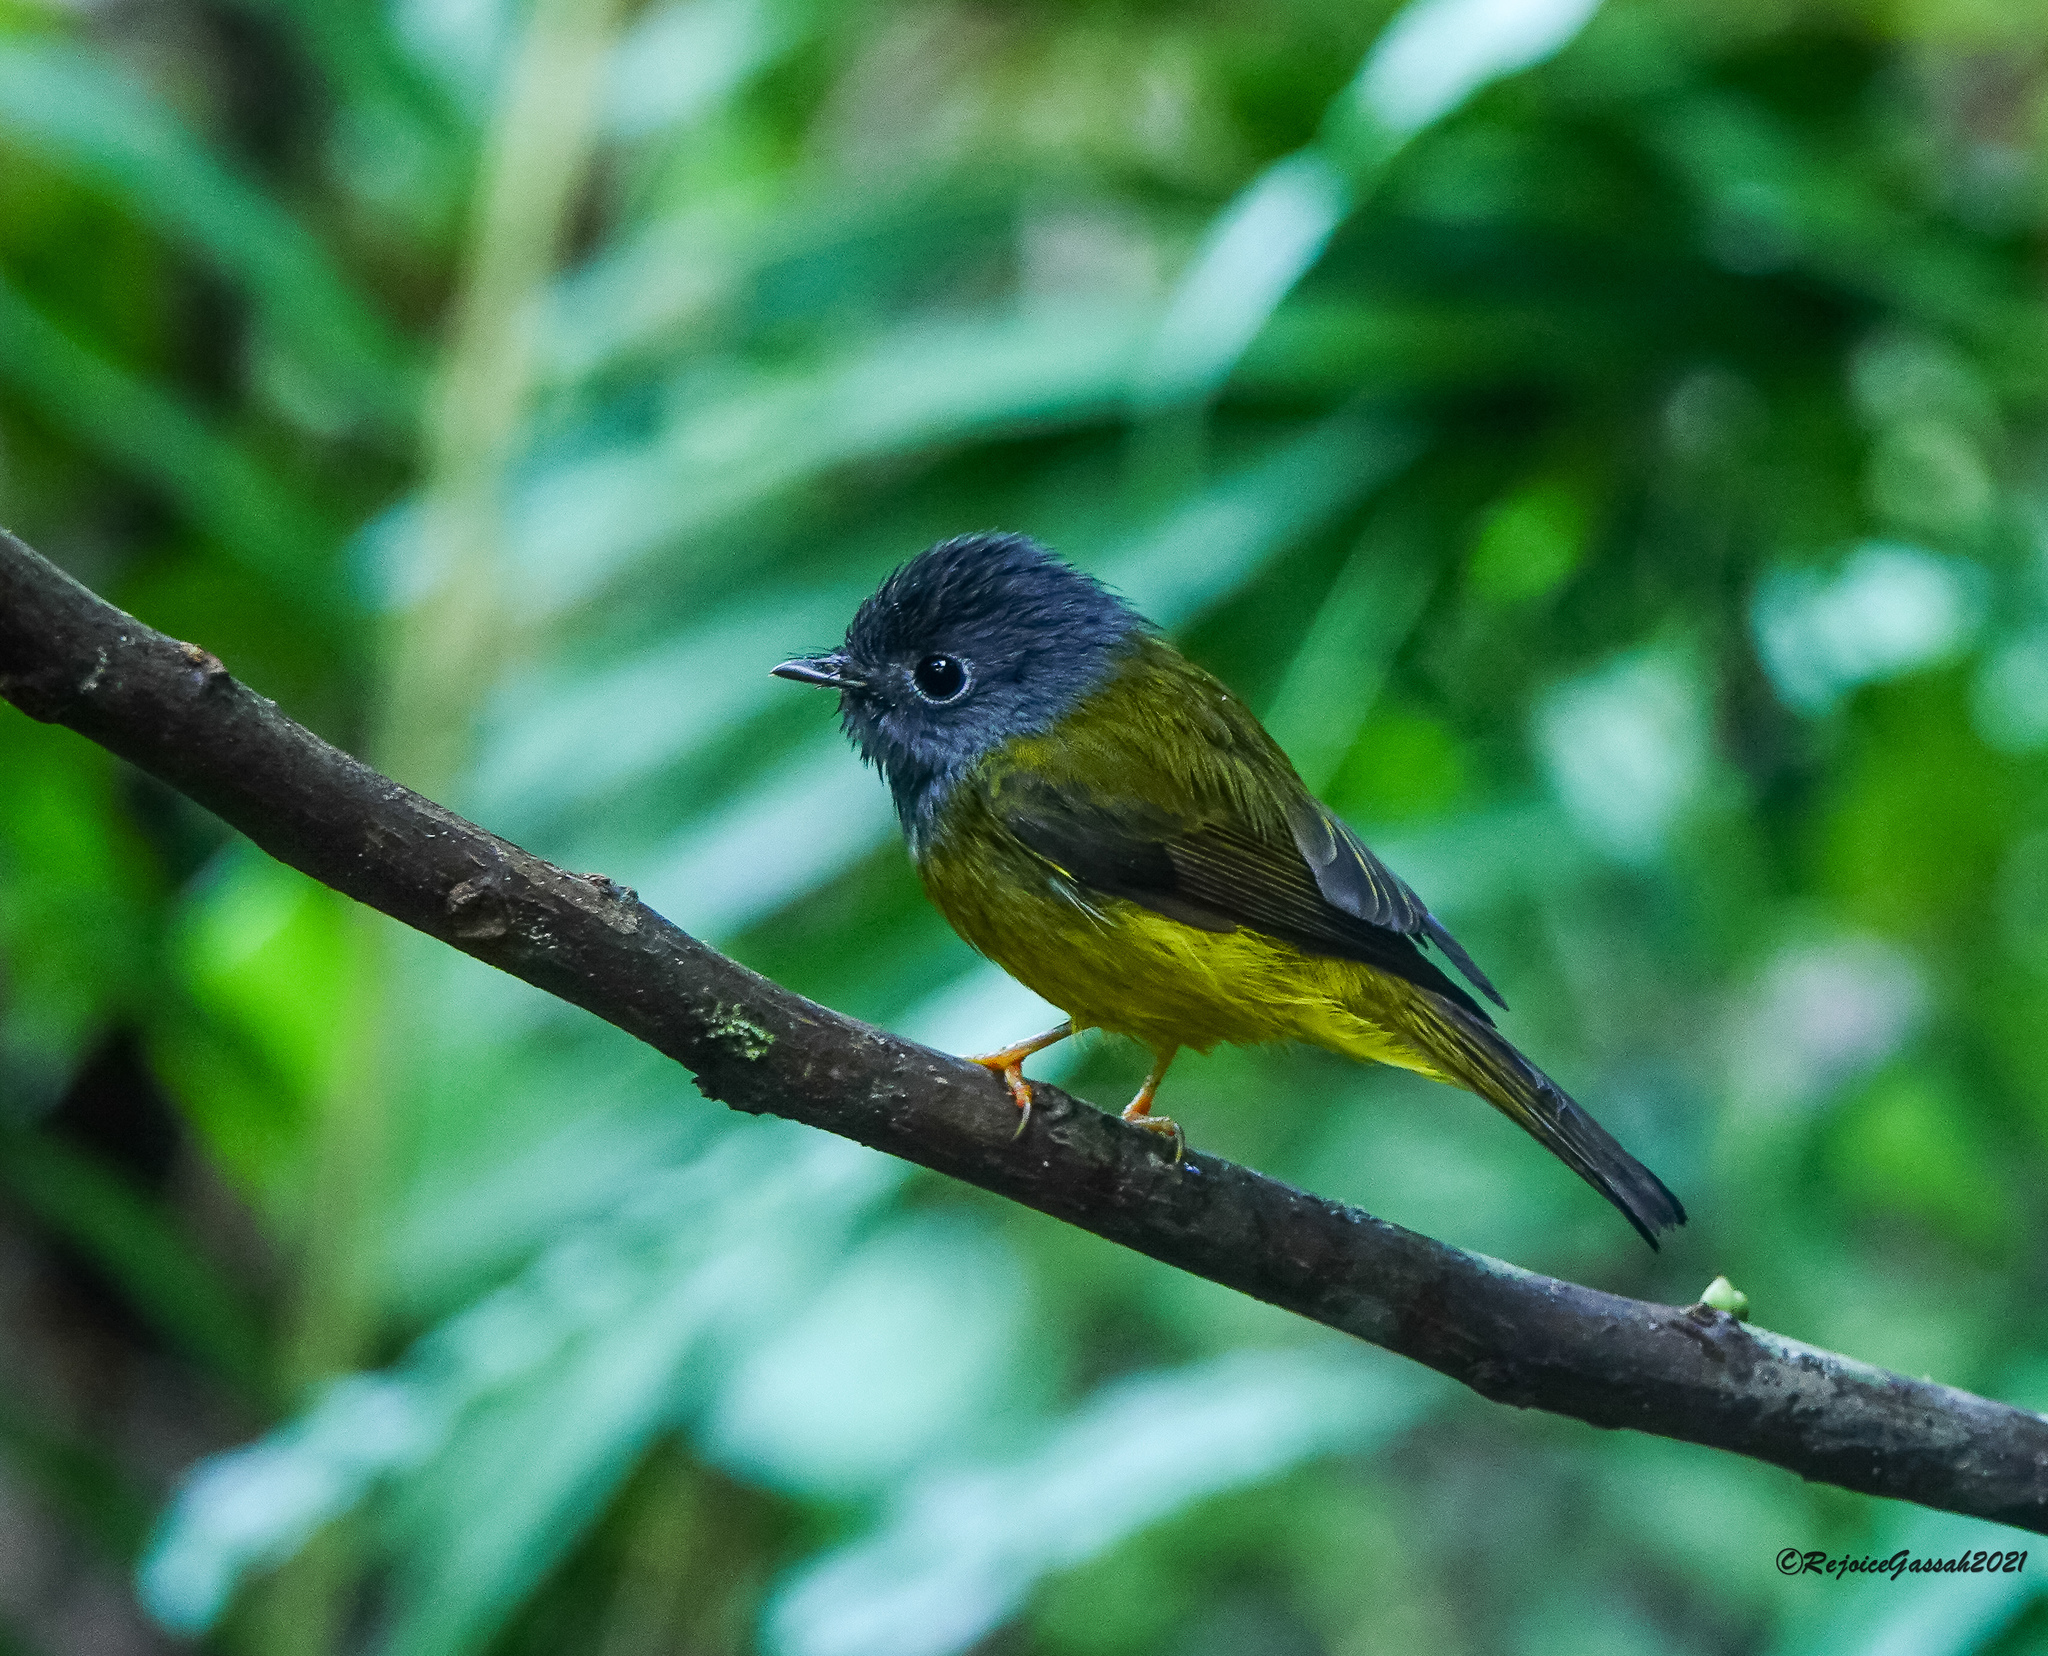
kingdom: Animalia
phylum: Chordata
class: Aves
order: Passeriformes
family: Stenostiridae
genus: Culicicapa
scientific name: Culicicapa ceylonensis
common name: Grey-headed canary-flycatcher
